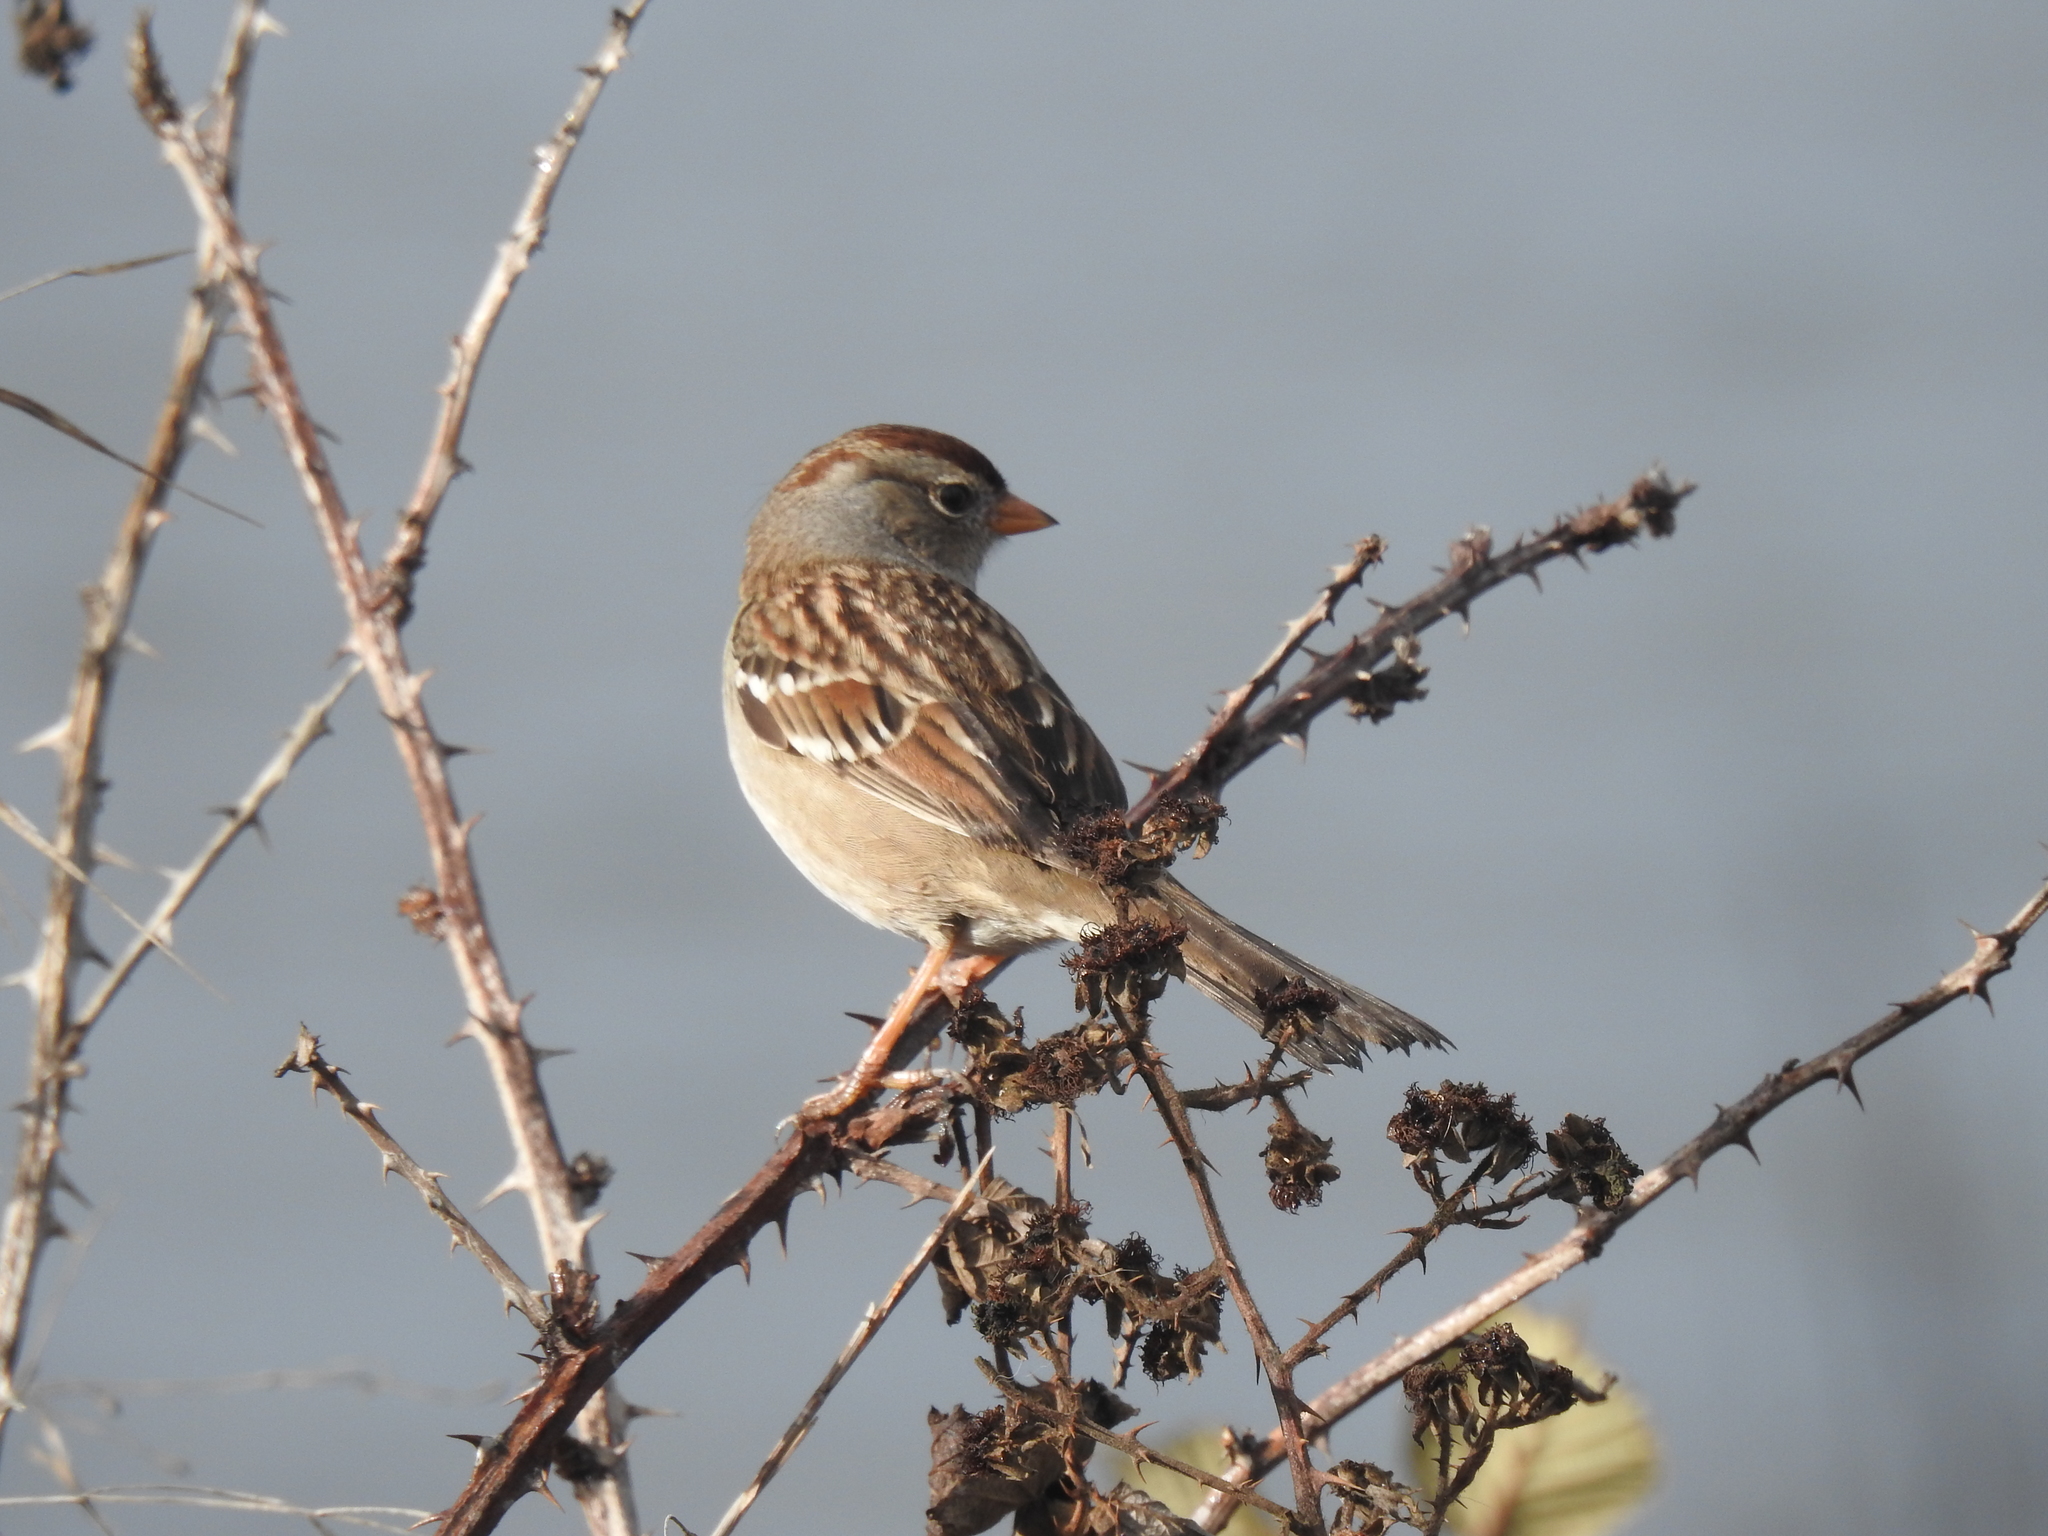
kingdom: Animalia
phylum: Chordata
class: Aves
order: Passeriformes
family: Passerellidae
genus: Zonotrichia
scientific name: Zonotrichia leucophrys
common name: White-crowned sparrow
